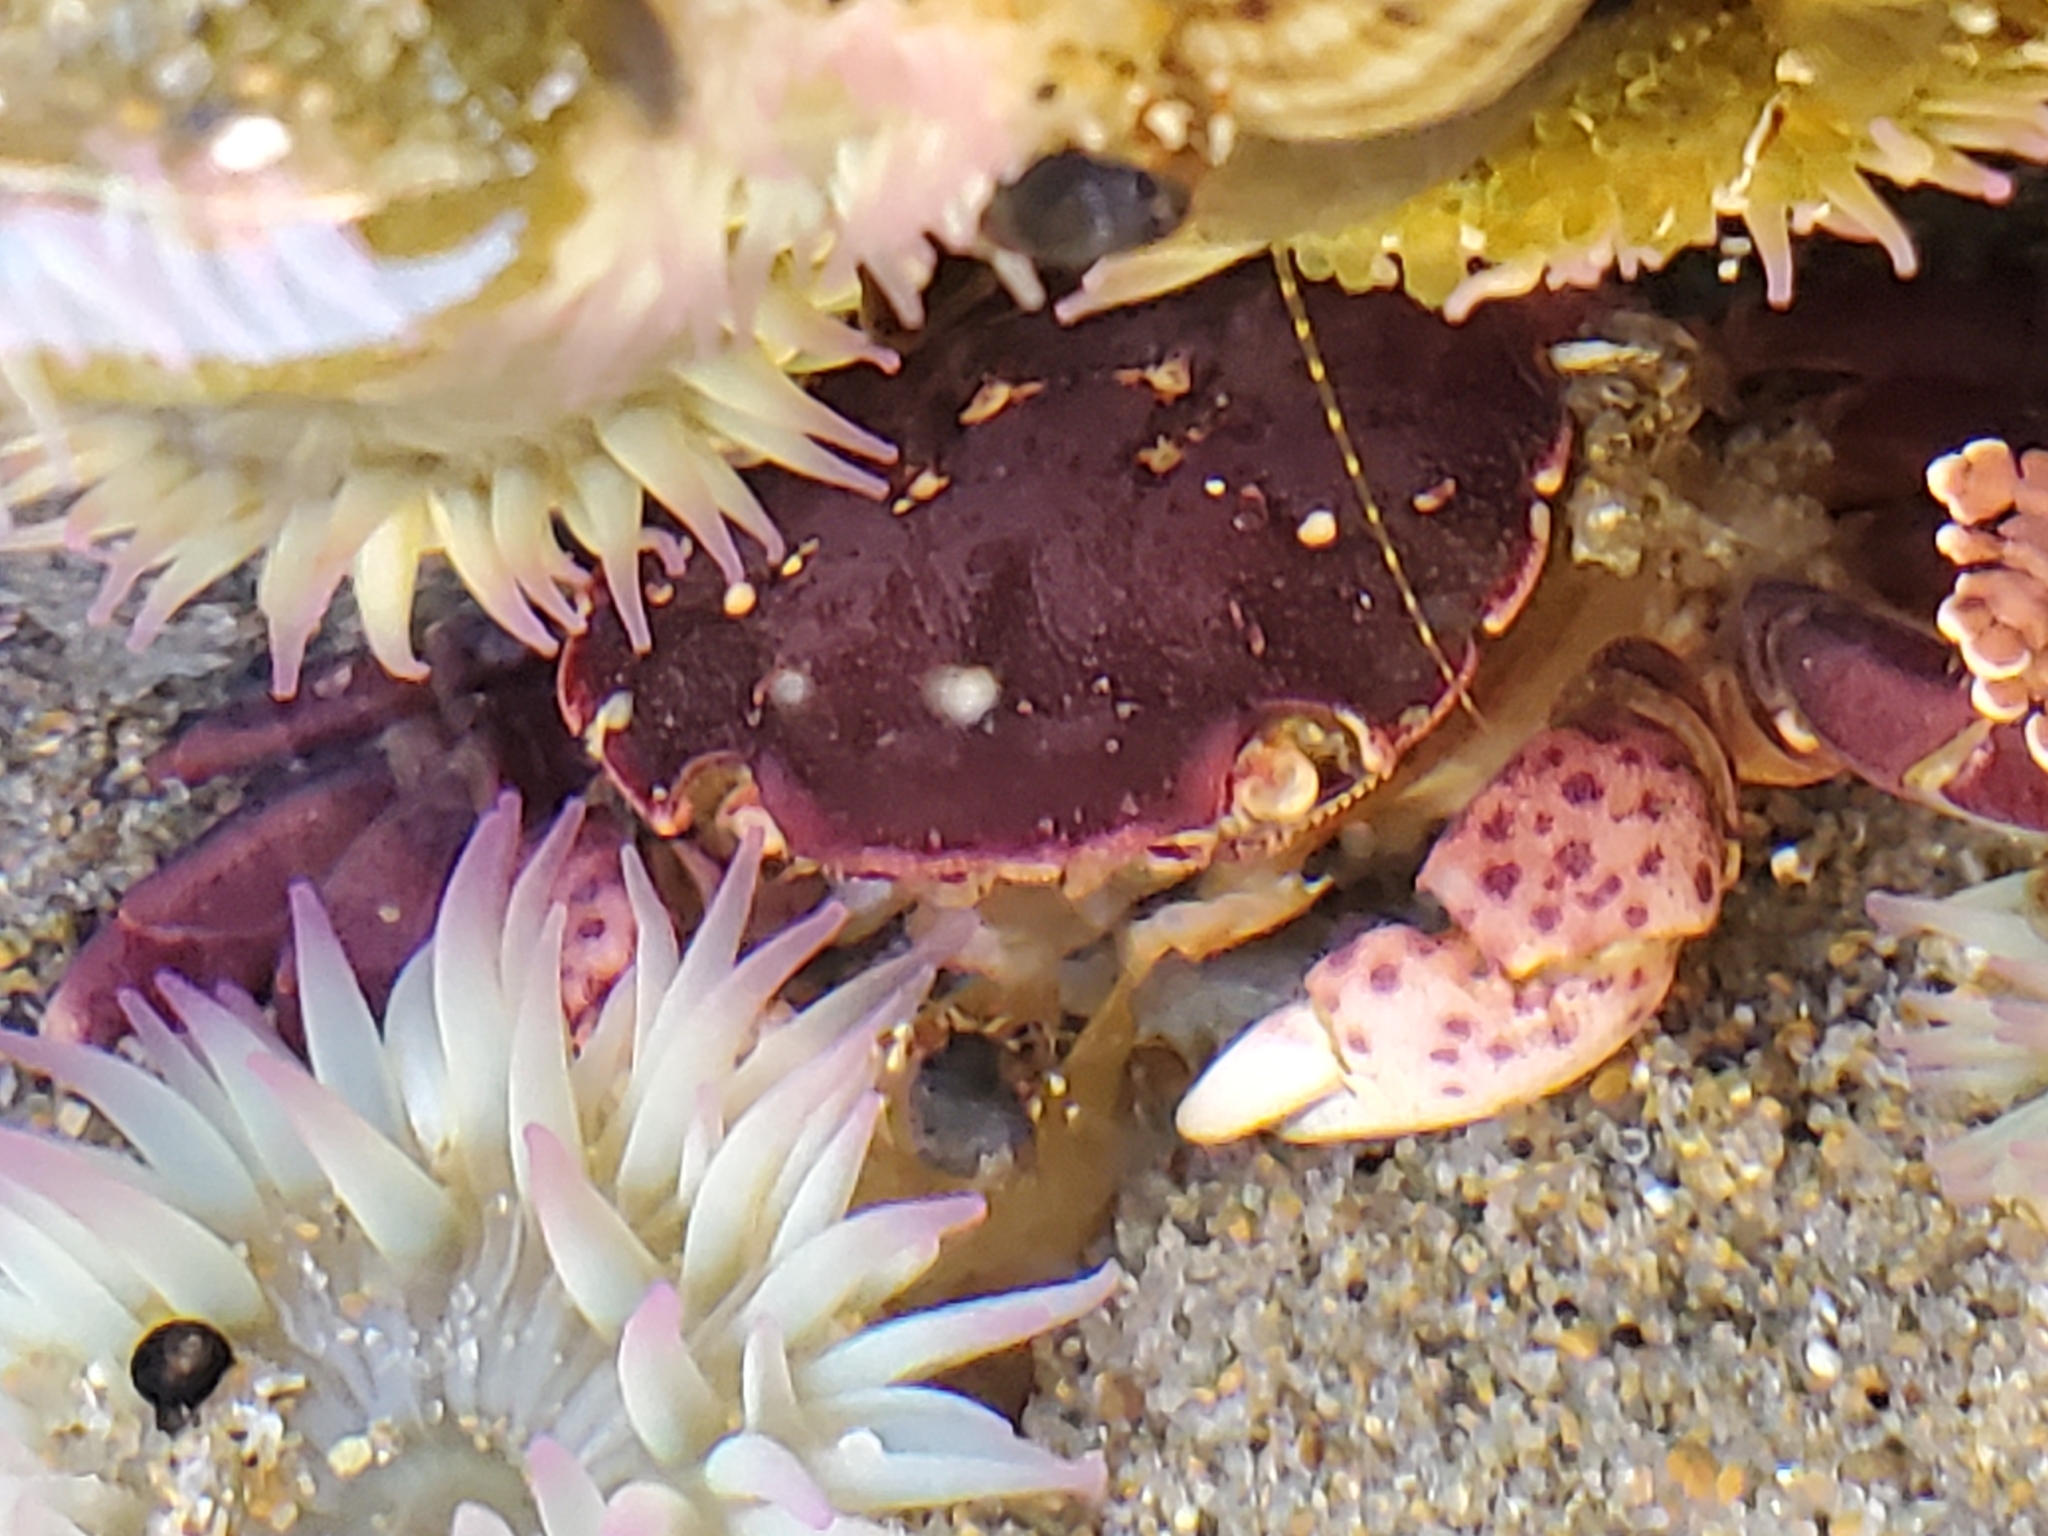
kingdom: Animalia
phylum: Arthropoda
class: Malacostraca
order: Decapoda
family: Varunidae
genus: Hemigrapsus
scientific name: Hemigrapsus nudus
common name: Purple shore crab
